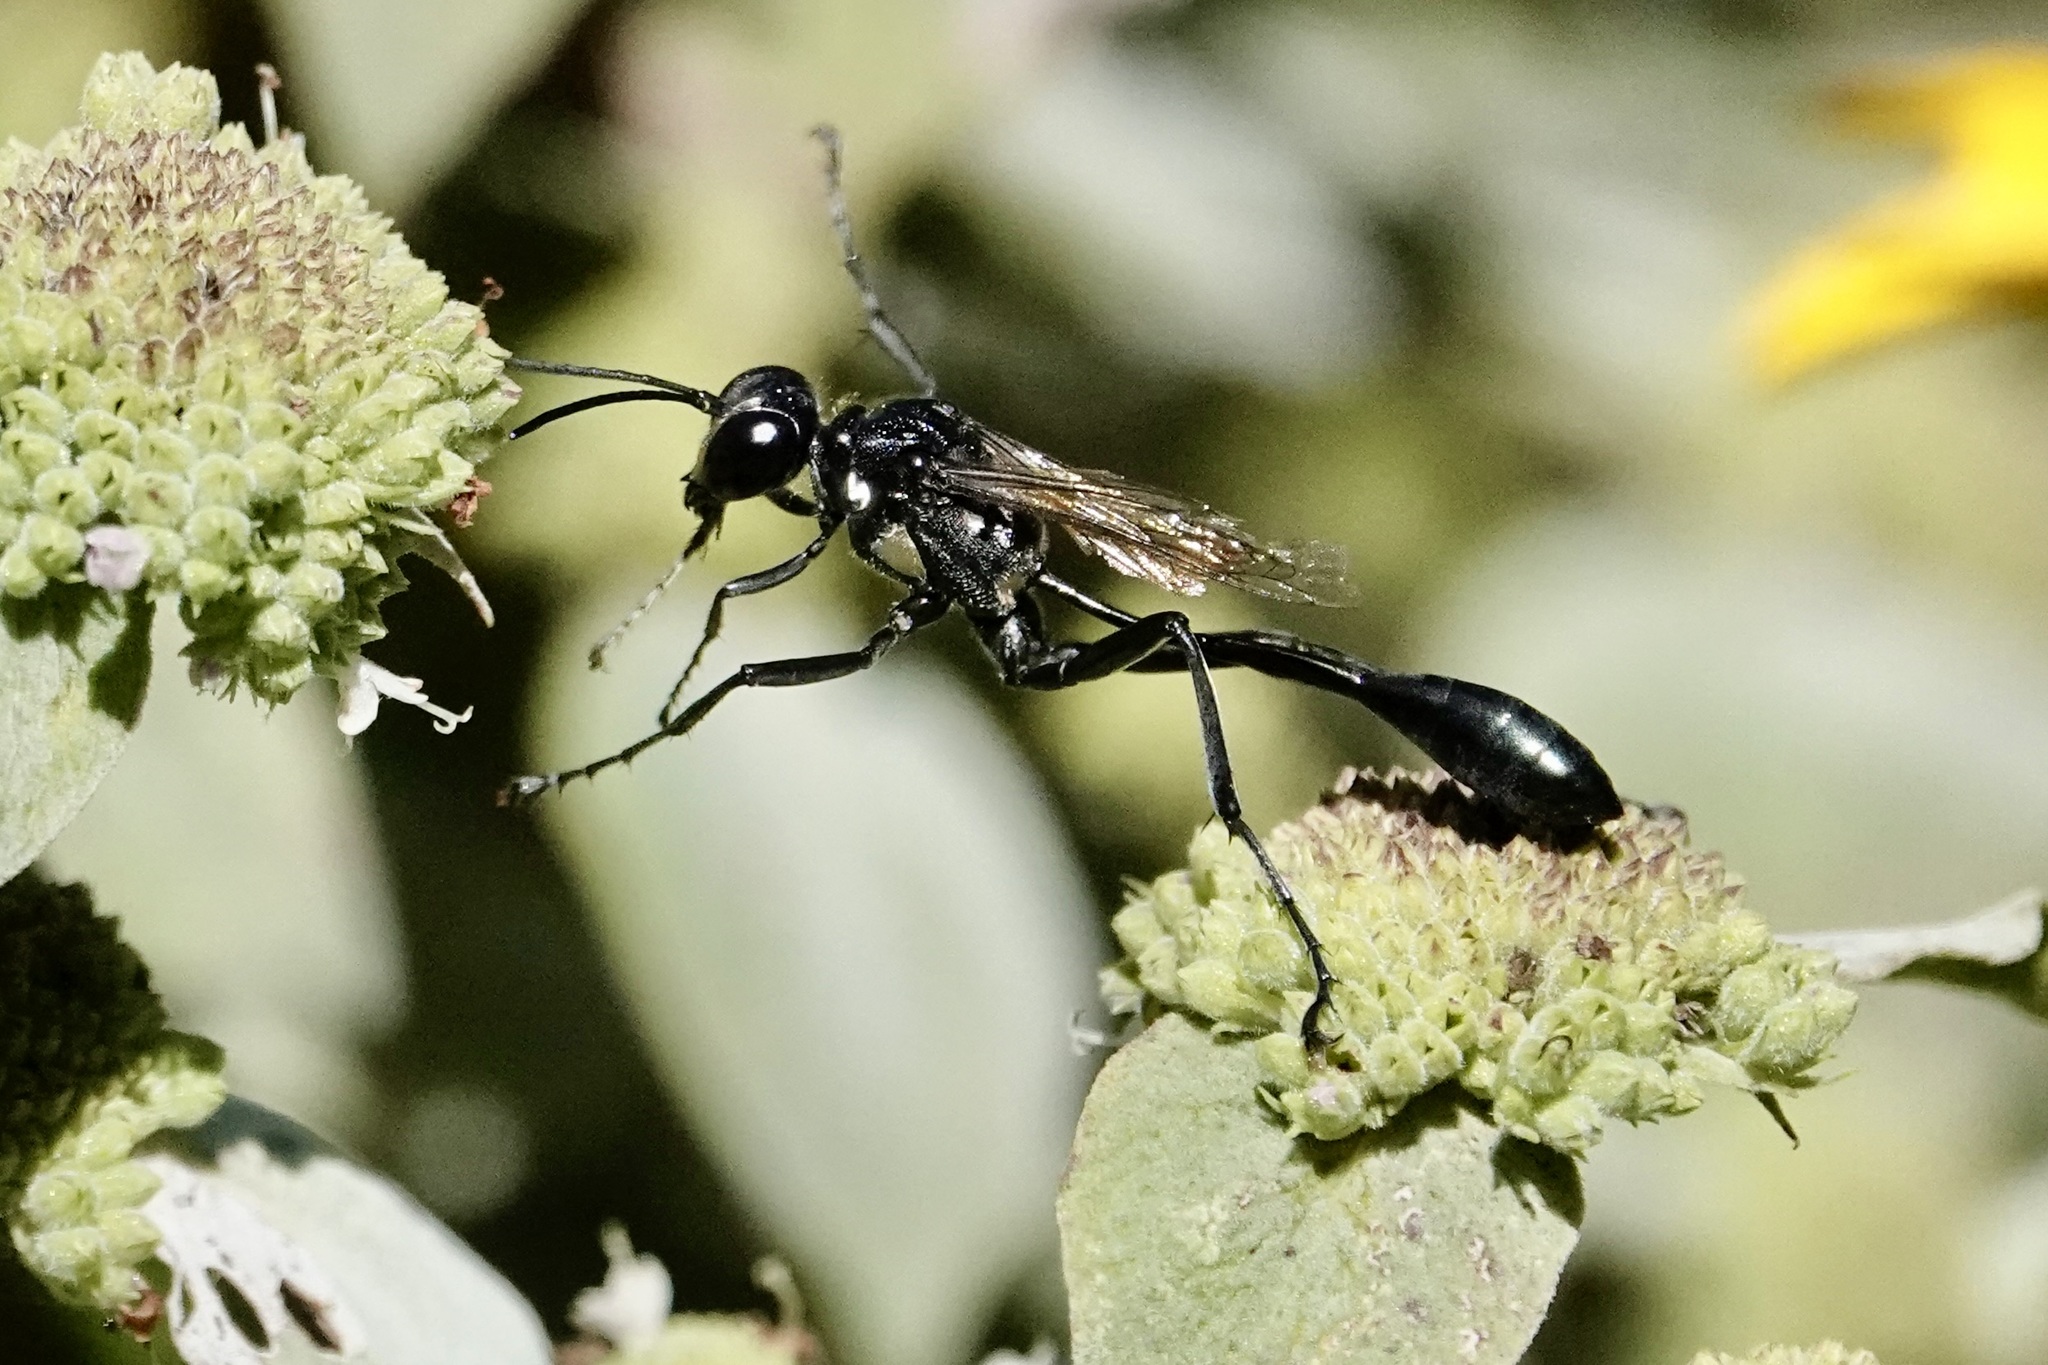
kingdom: Animalia
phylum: Arthropoda
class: Insecta
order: Hymenoptera
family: Sphecidae
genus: Eremnophila
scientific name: Eremnophila aureonotata
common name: Gold-marked thread-waisted wasp
